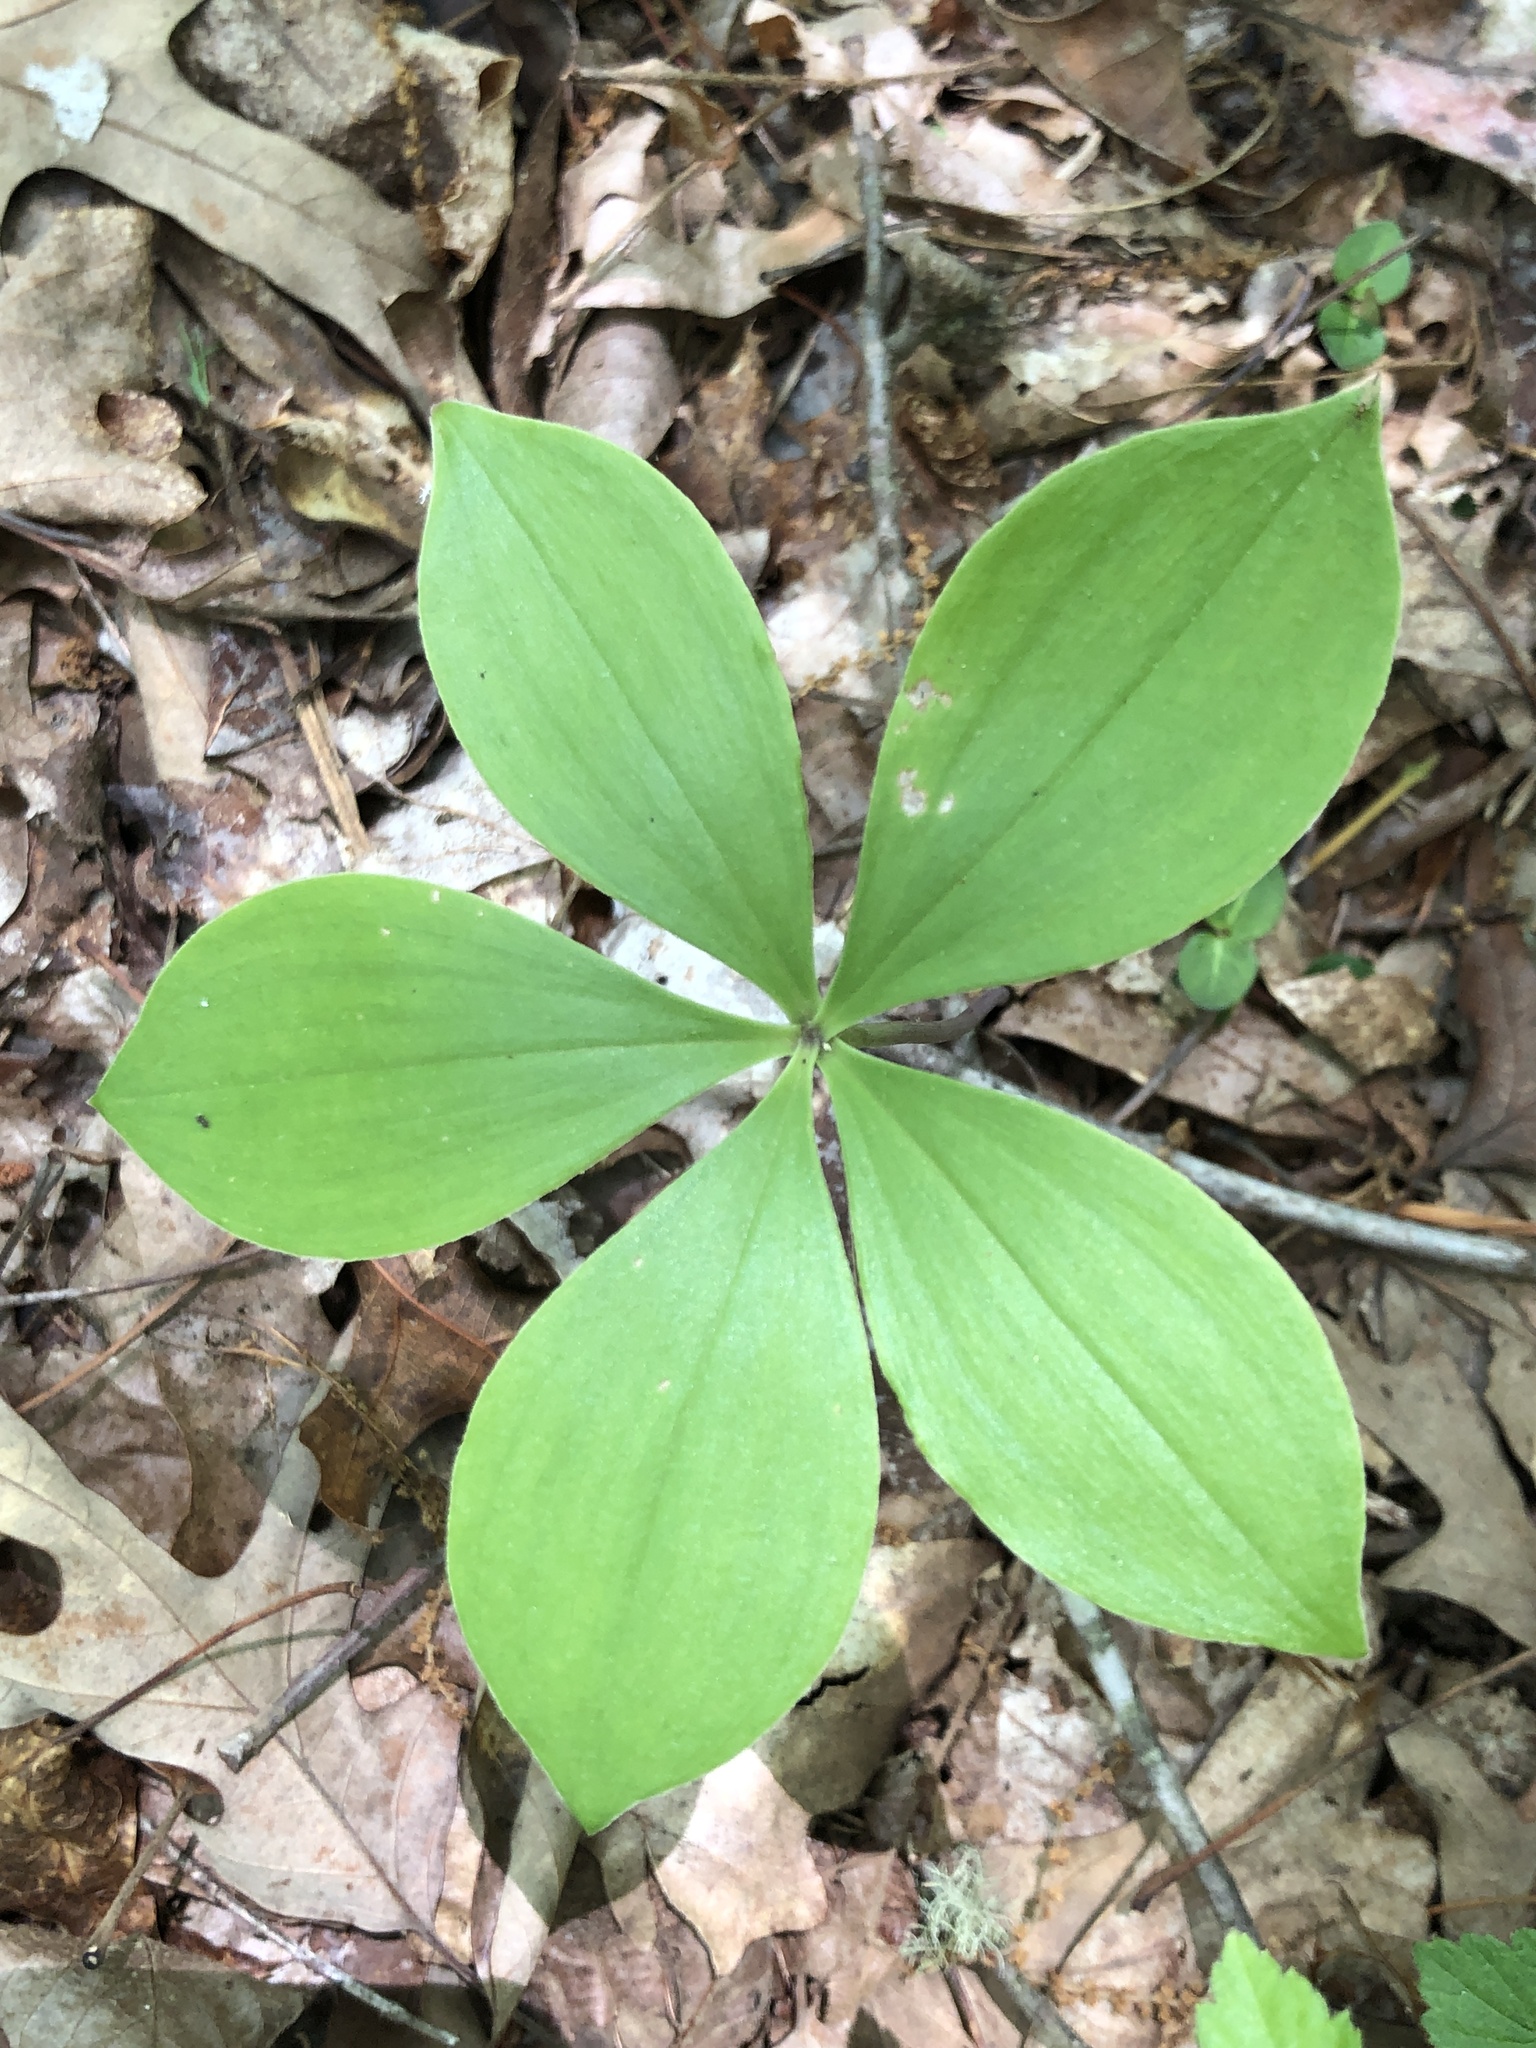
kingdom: Plantae
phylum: Tracheophyta
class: Liliopsida
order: Asparagales
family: Orchidaceae
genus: Isotria
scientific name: Isotria verticillata
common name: Large whorled pogonia
